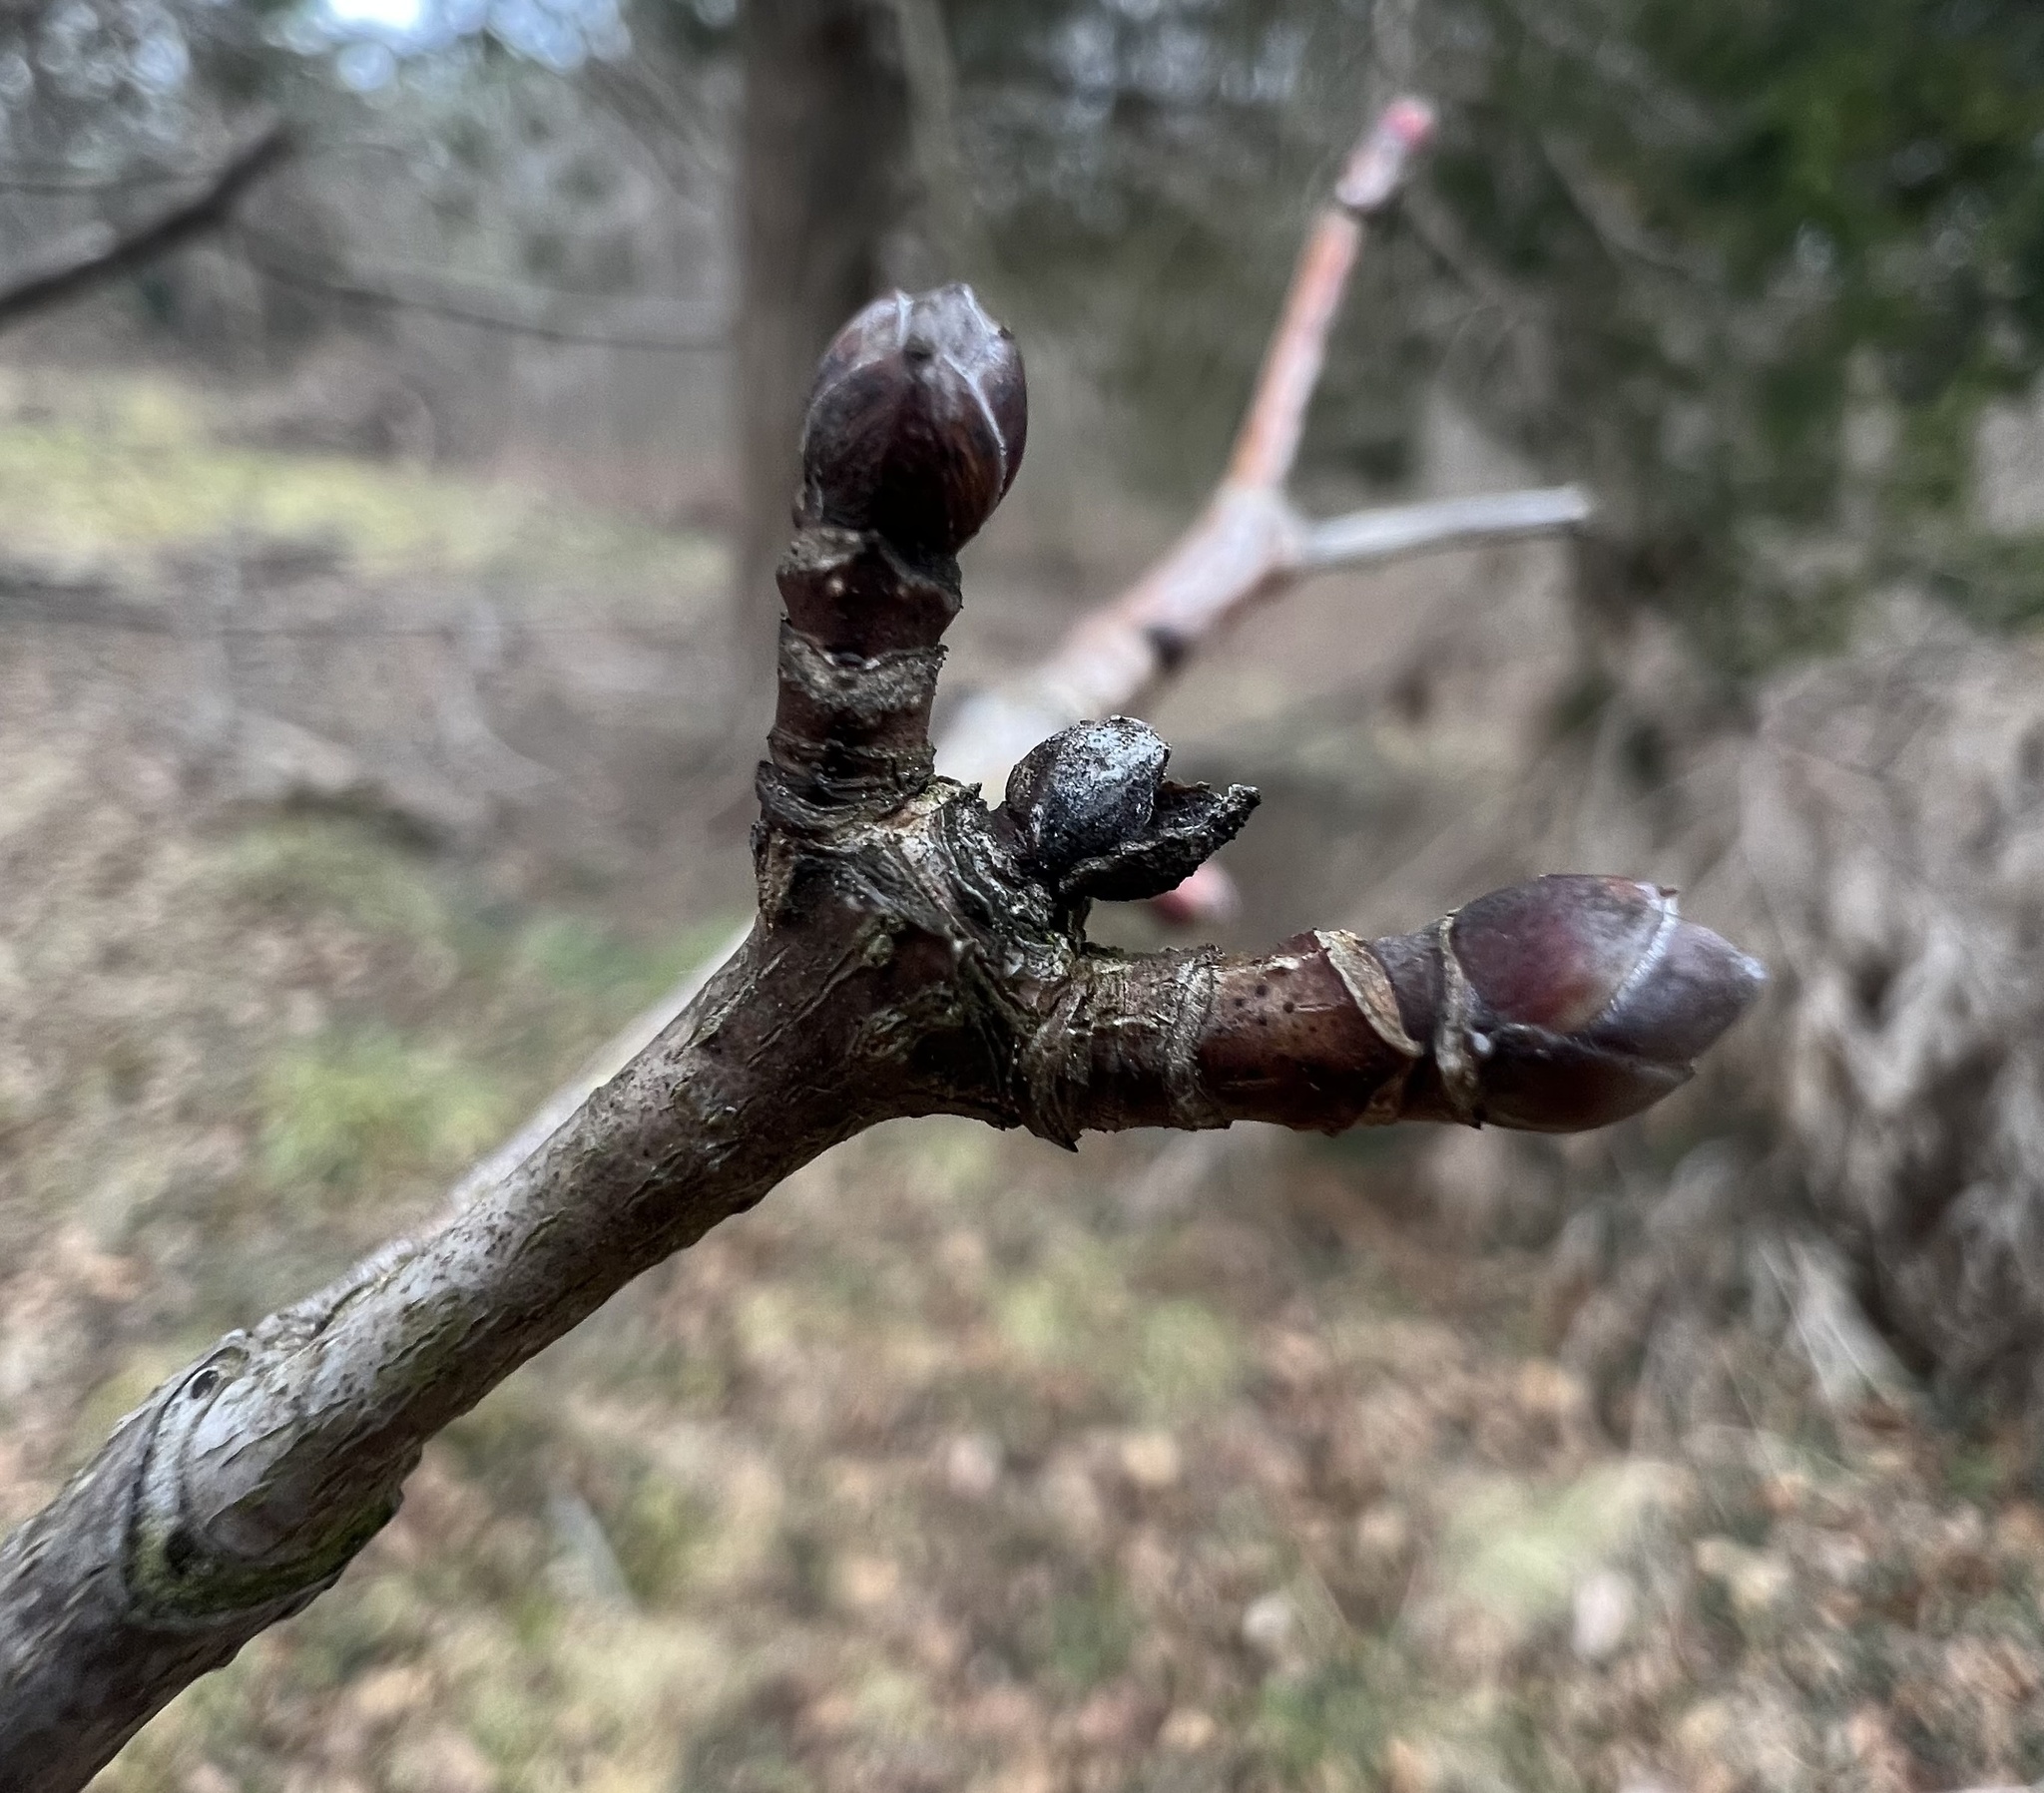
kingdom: Plantae
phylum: Tracheophyta
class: Magnoliopsida
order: Sapindales
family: Sapindaceae
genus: Acer
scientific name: Acer platanoides
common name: Norway maple
